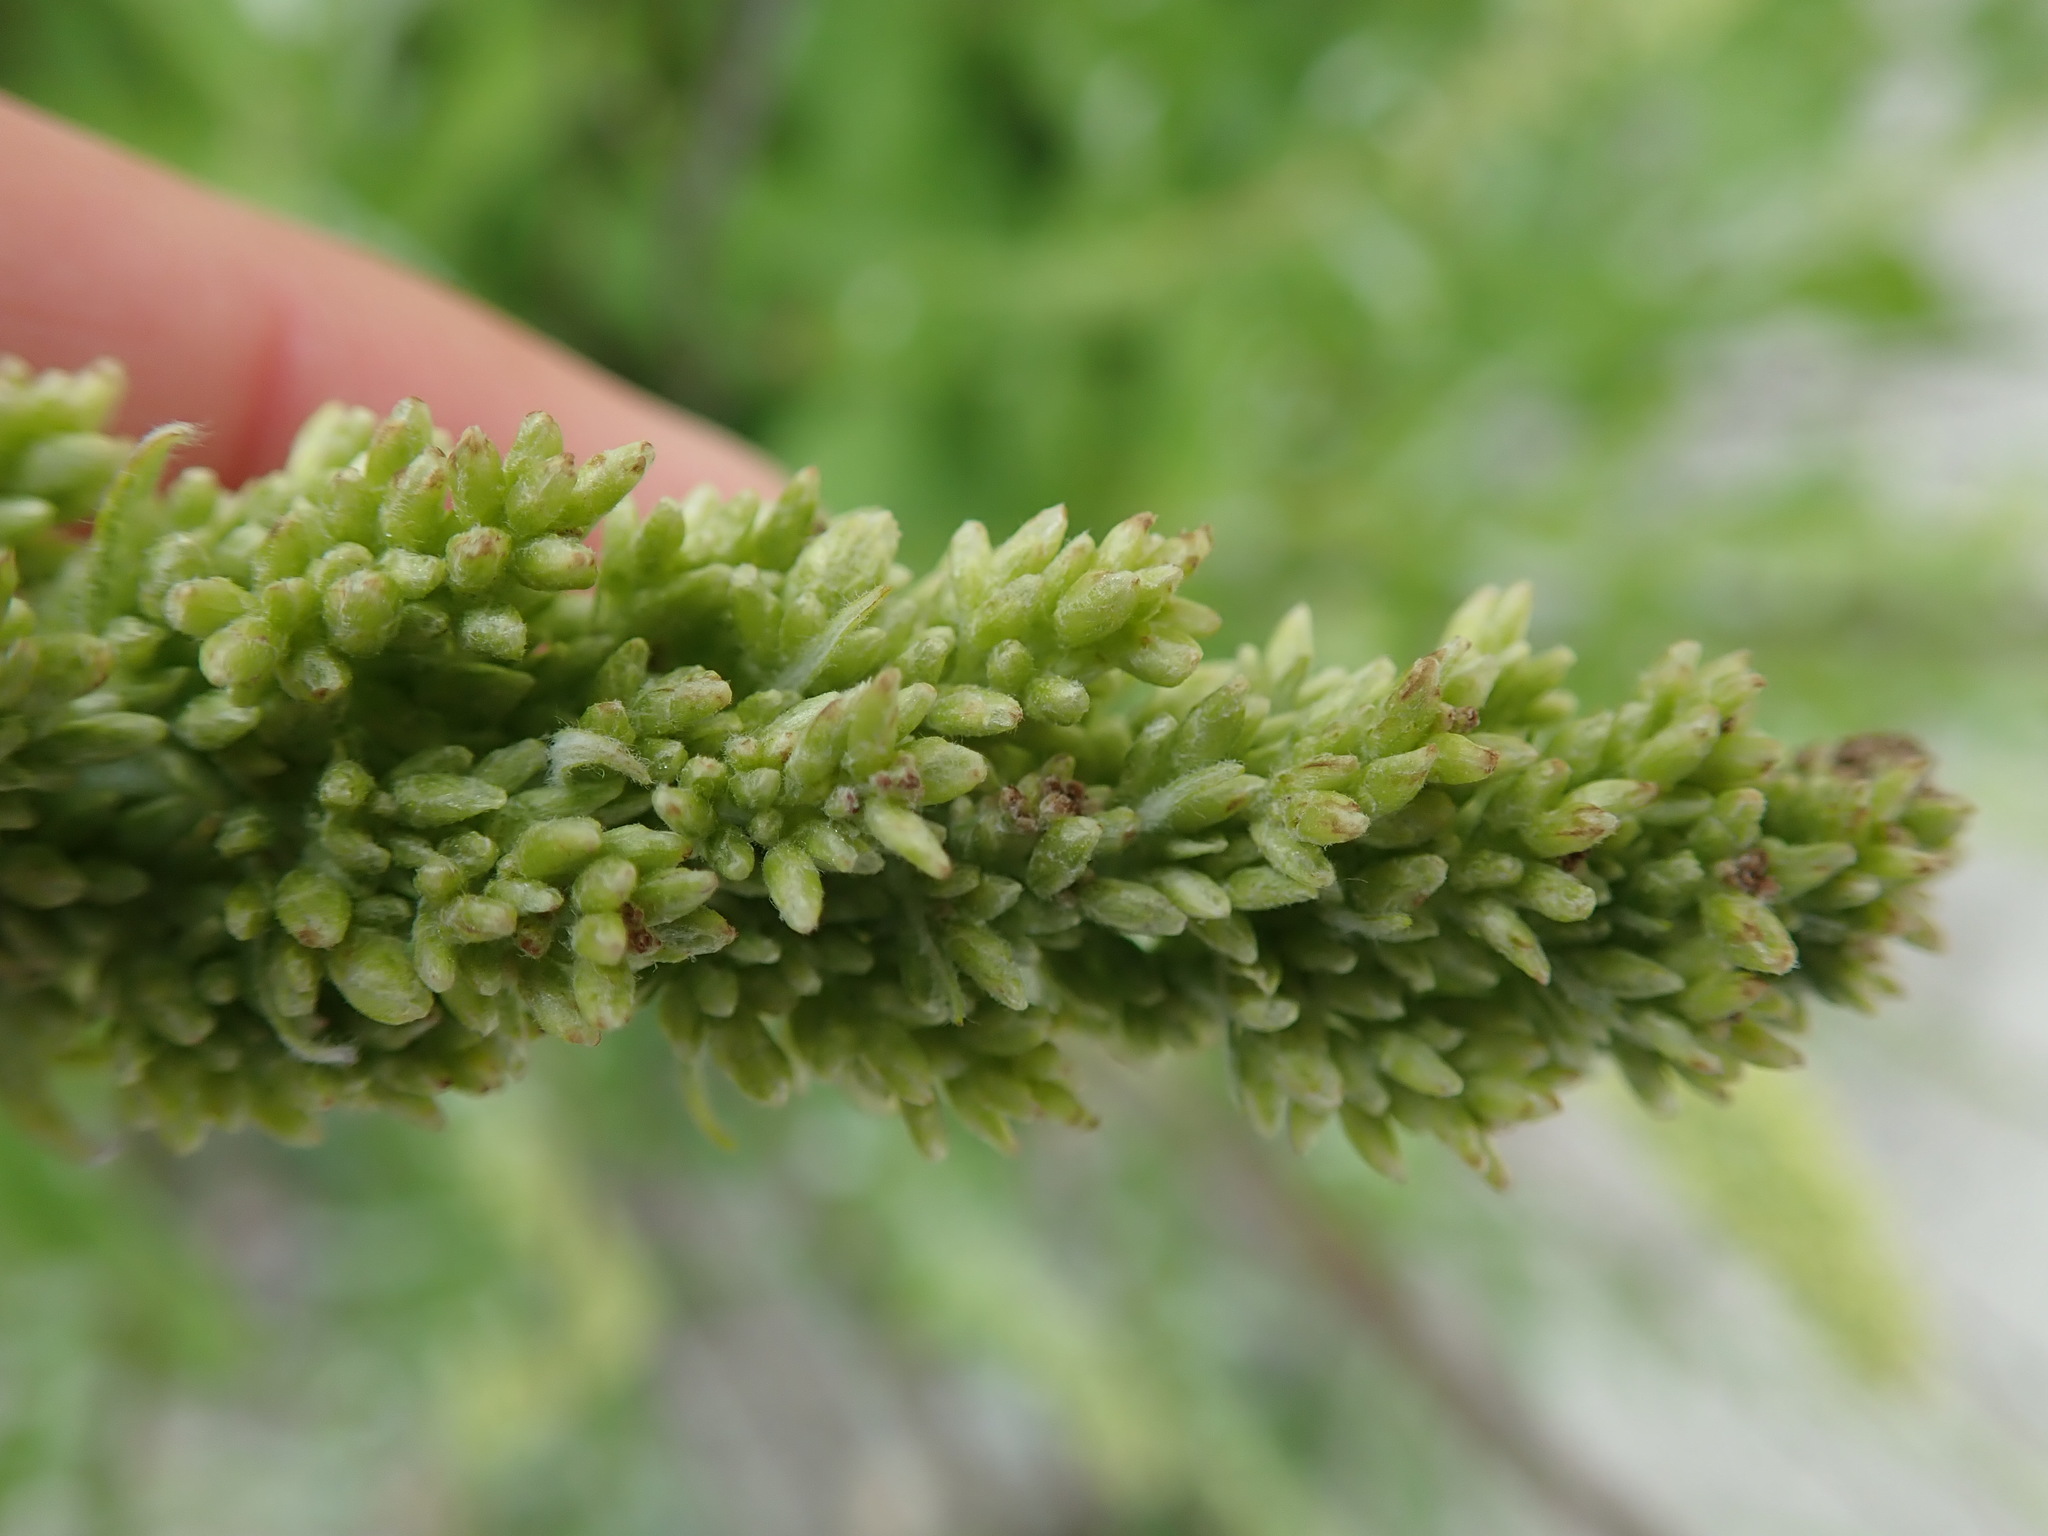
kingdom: Plantae
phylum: Tracheophyta
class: Magnoliopsida
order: Asterales
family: Asteraceae
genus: Artemisia
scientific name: Artemisia suksdorfii
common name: Suksdorf sagewort
